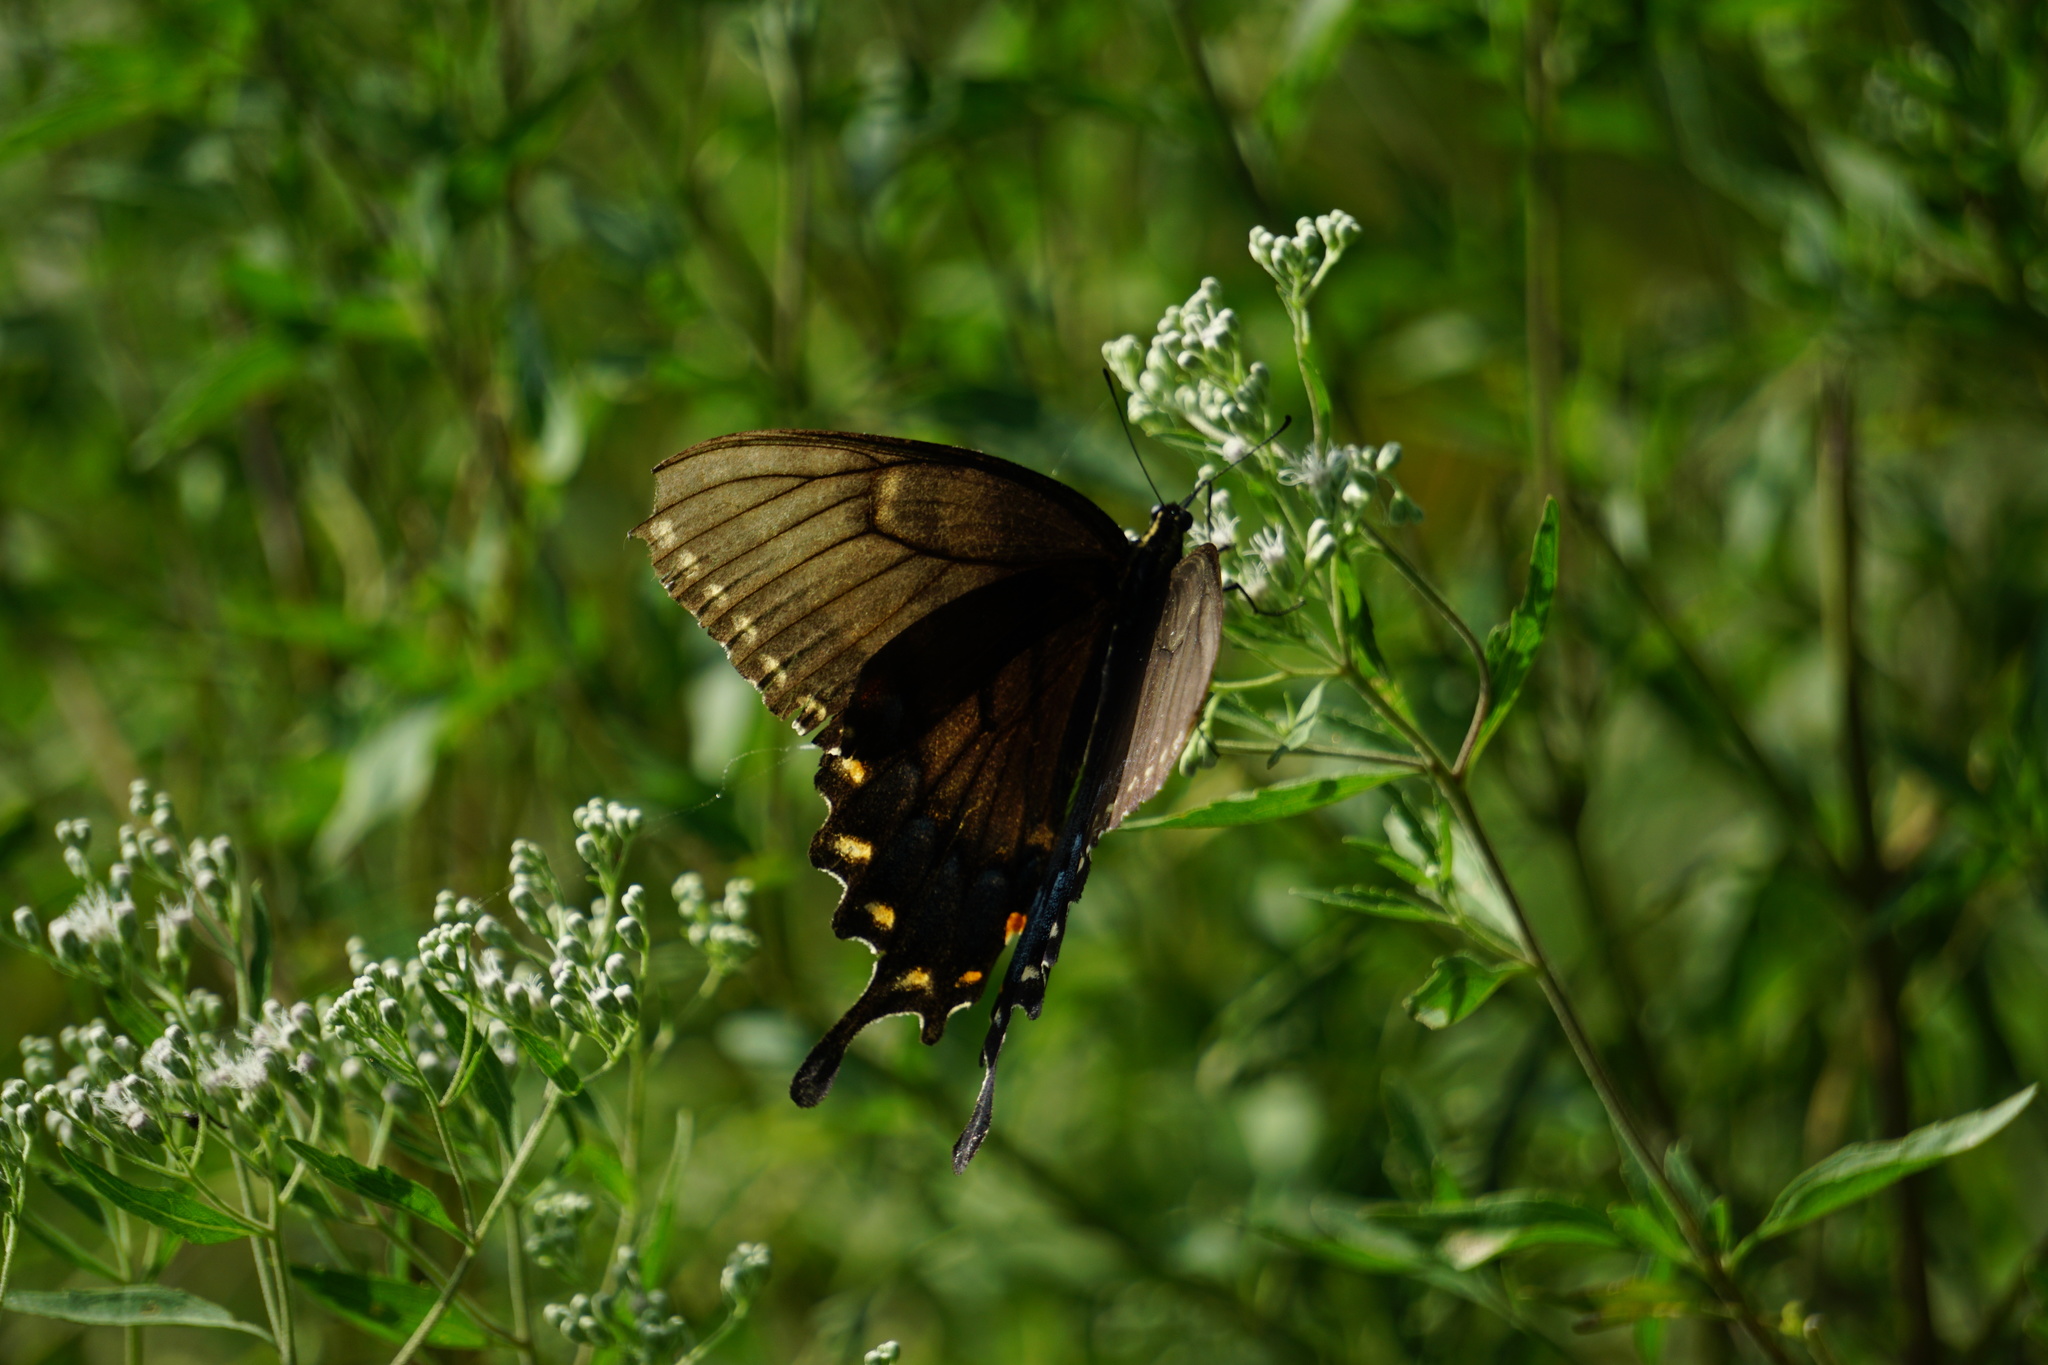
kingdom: Animalia
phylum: Arthropoda
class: Insecta
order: Lepidoptera
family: Papilionidae
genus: Papilio
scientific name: Papilio glaucus
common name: Tiger swallowtail
